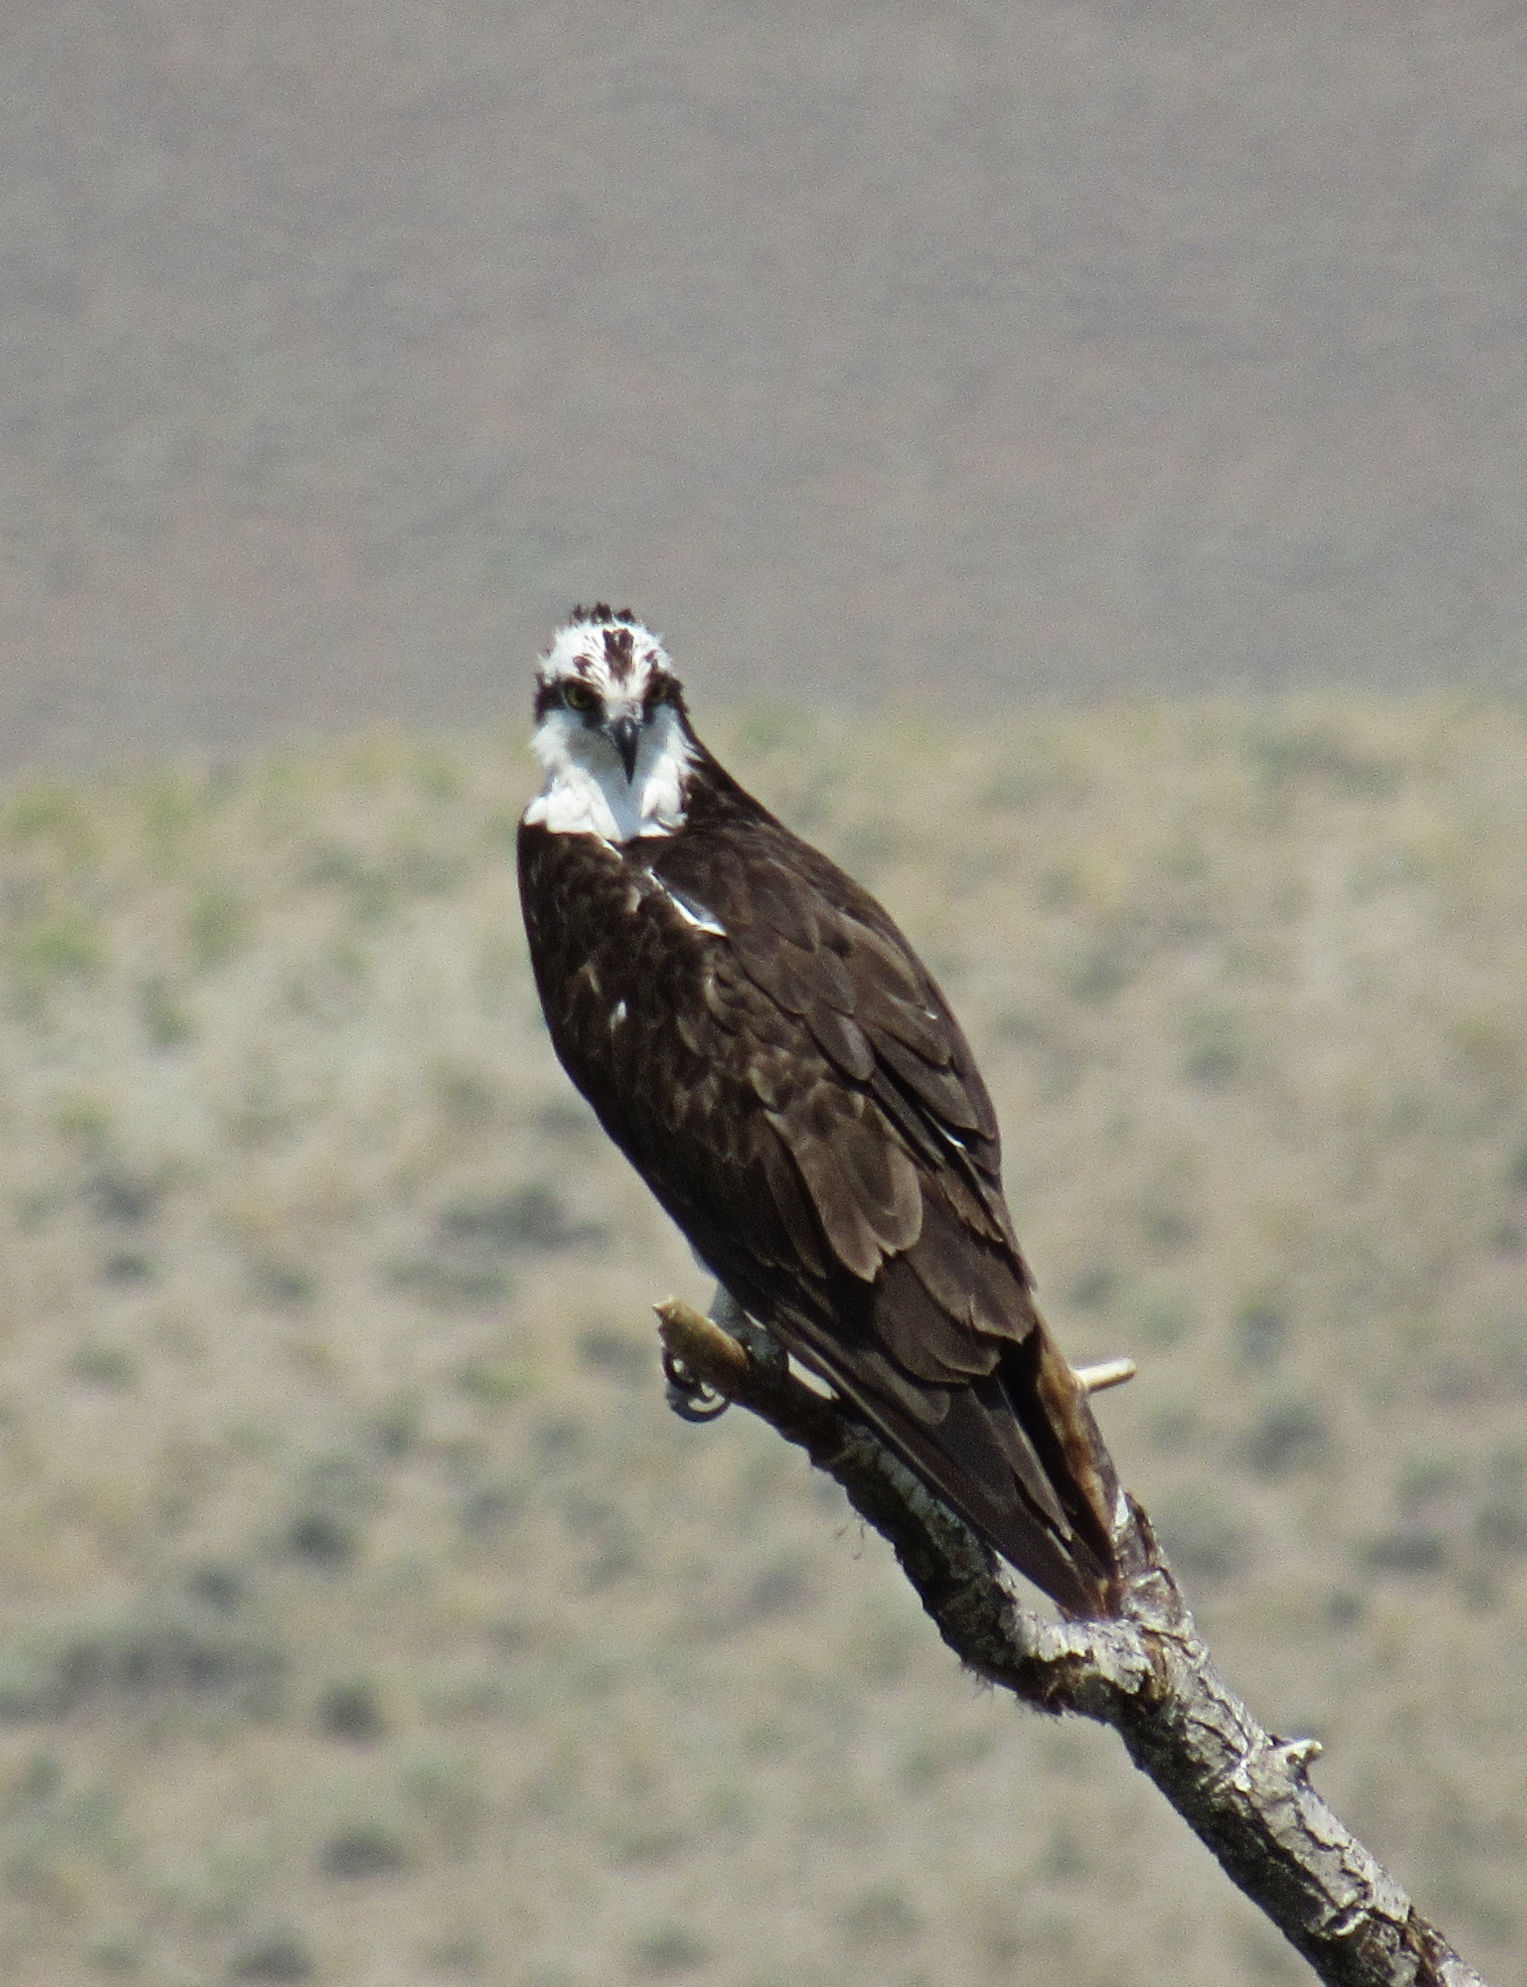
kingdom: Animalia
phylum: Chordata
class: Aves
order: Accipitriformes
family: Pandionidae
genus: Pandion
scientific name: Pandion haliaetus
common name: Osprey
